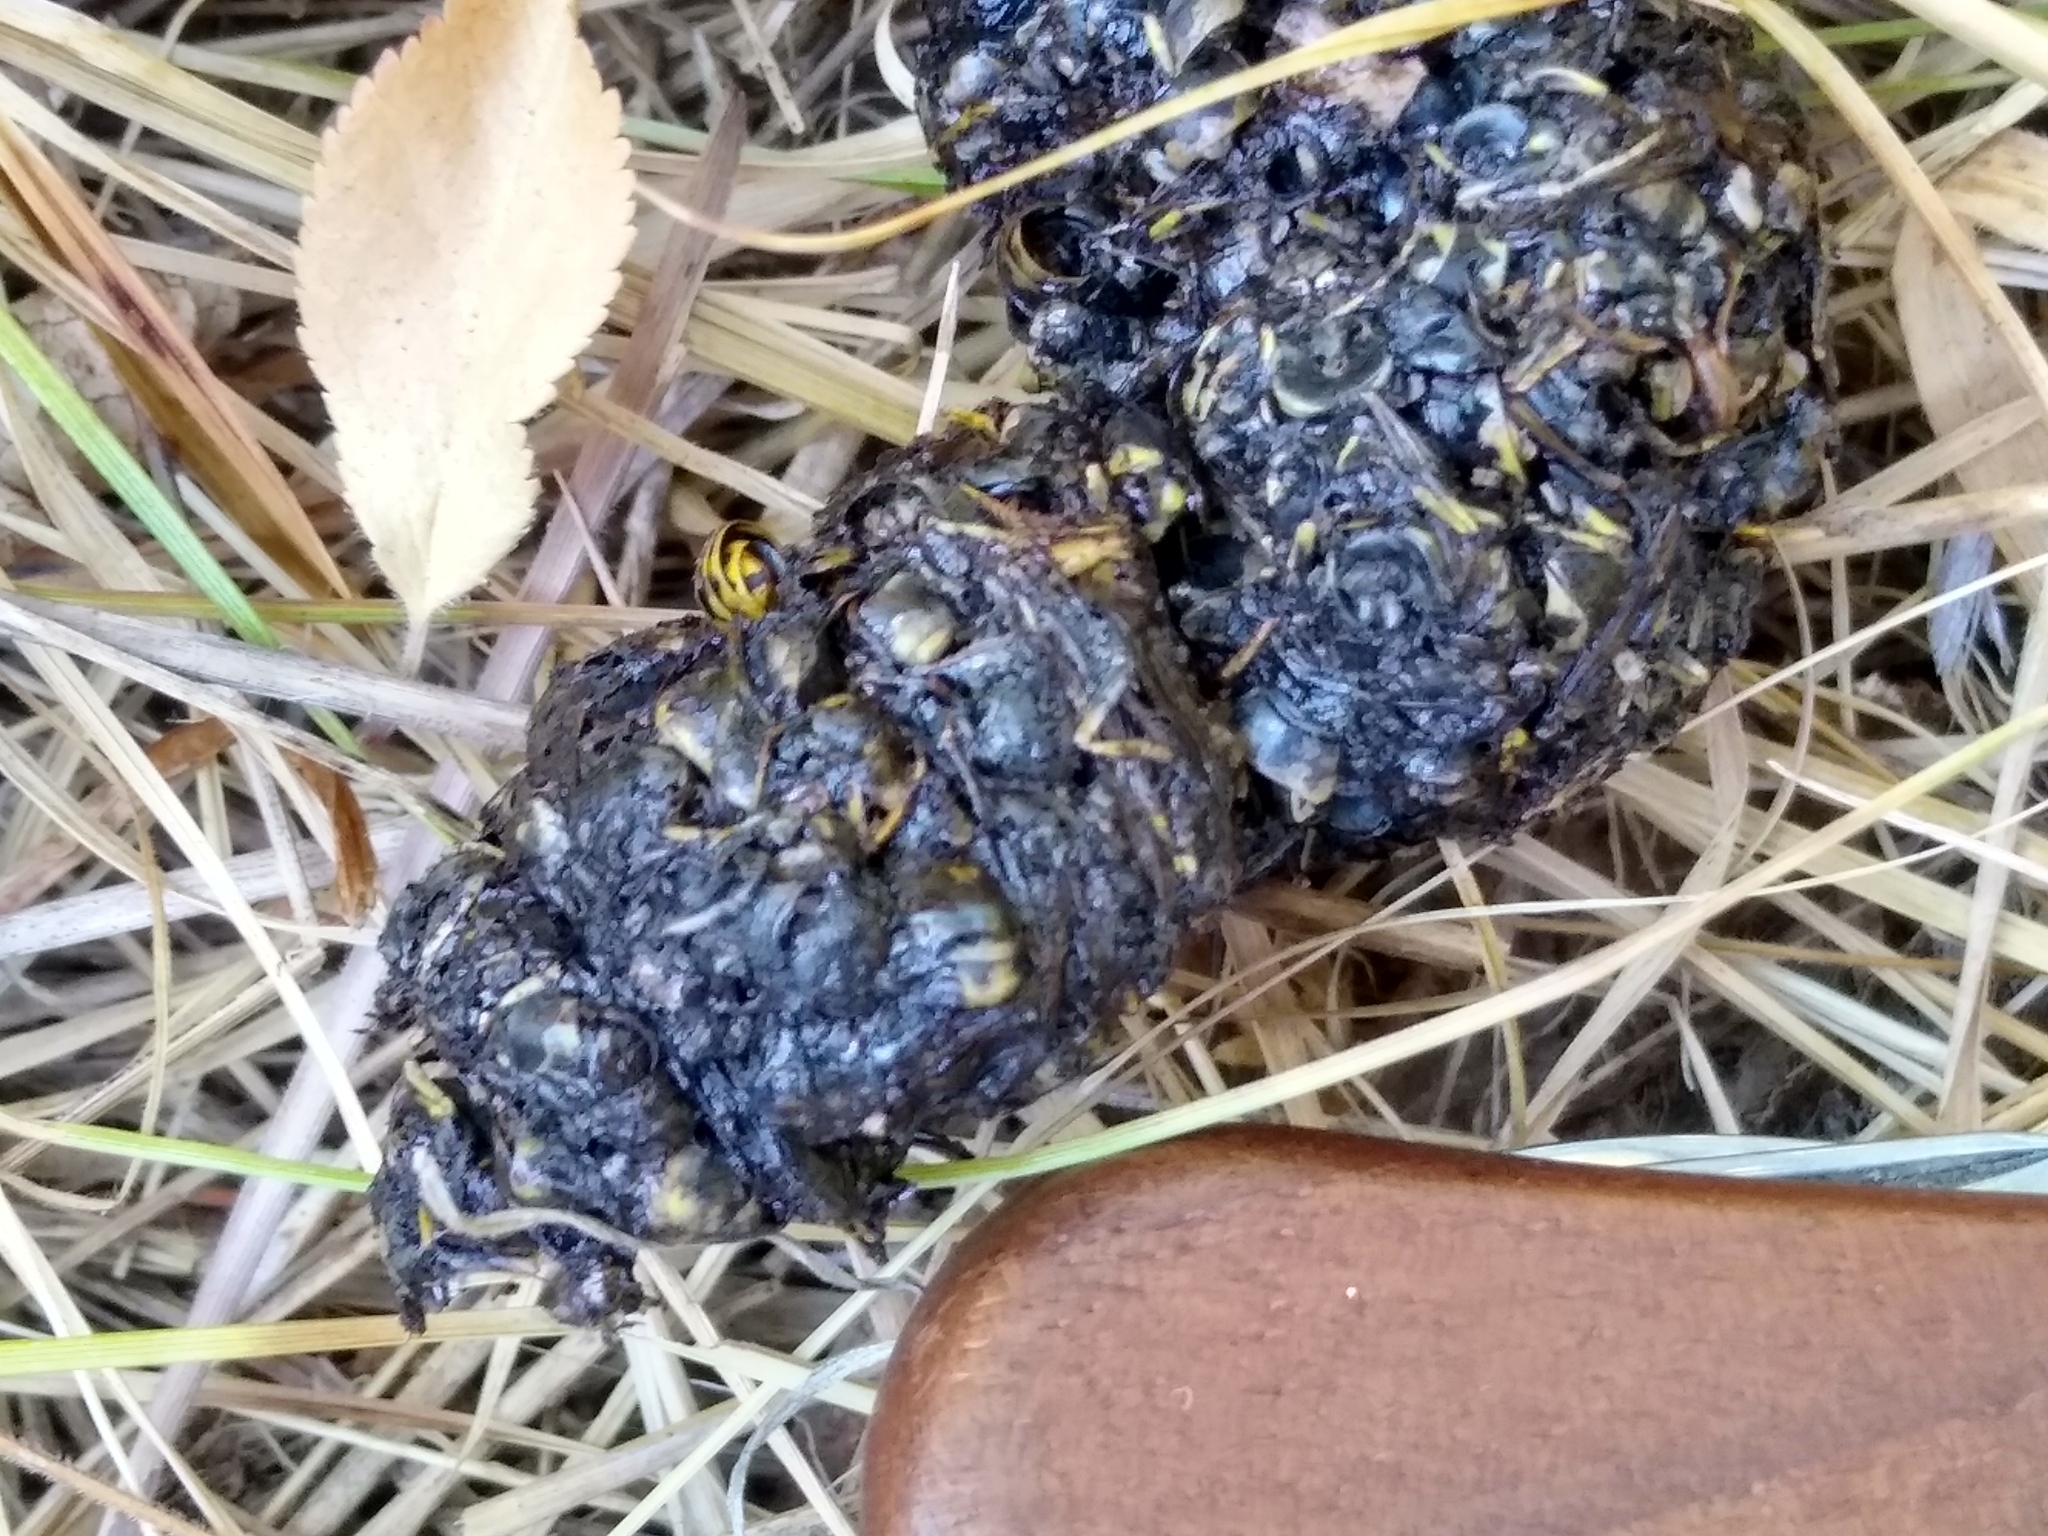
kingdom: Animalia
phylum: Chordata
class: Mammalia
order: Carnivora
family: Canidae
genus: Urocyon
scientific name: Urocyon cinereoargenteus
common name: Gray fox
